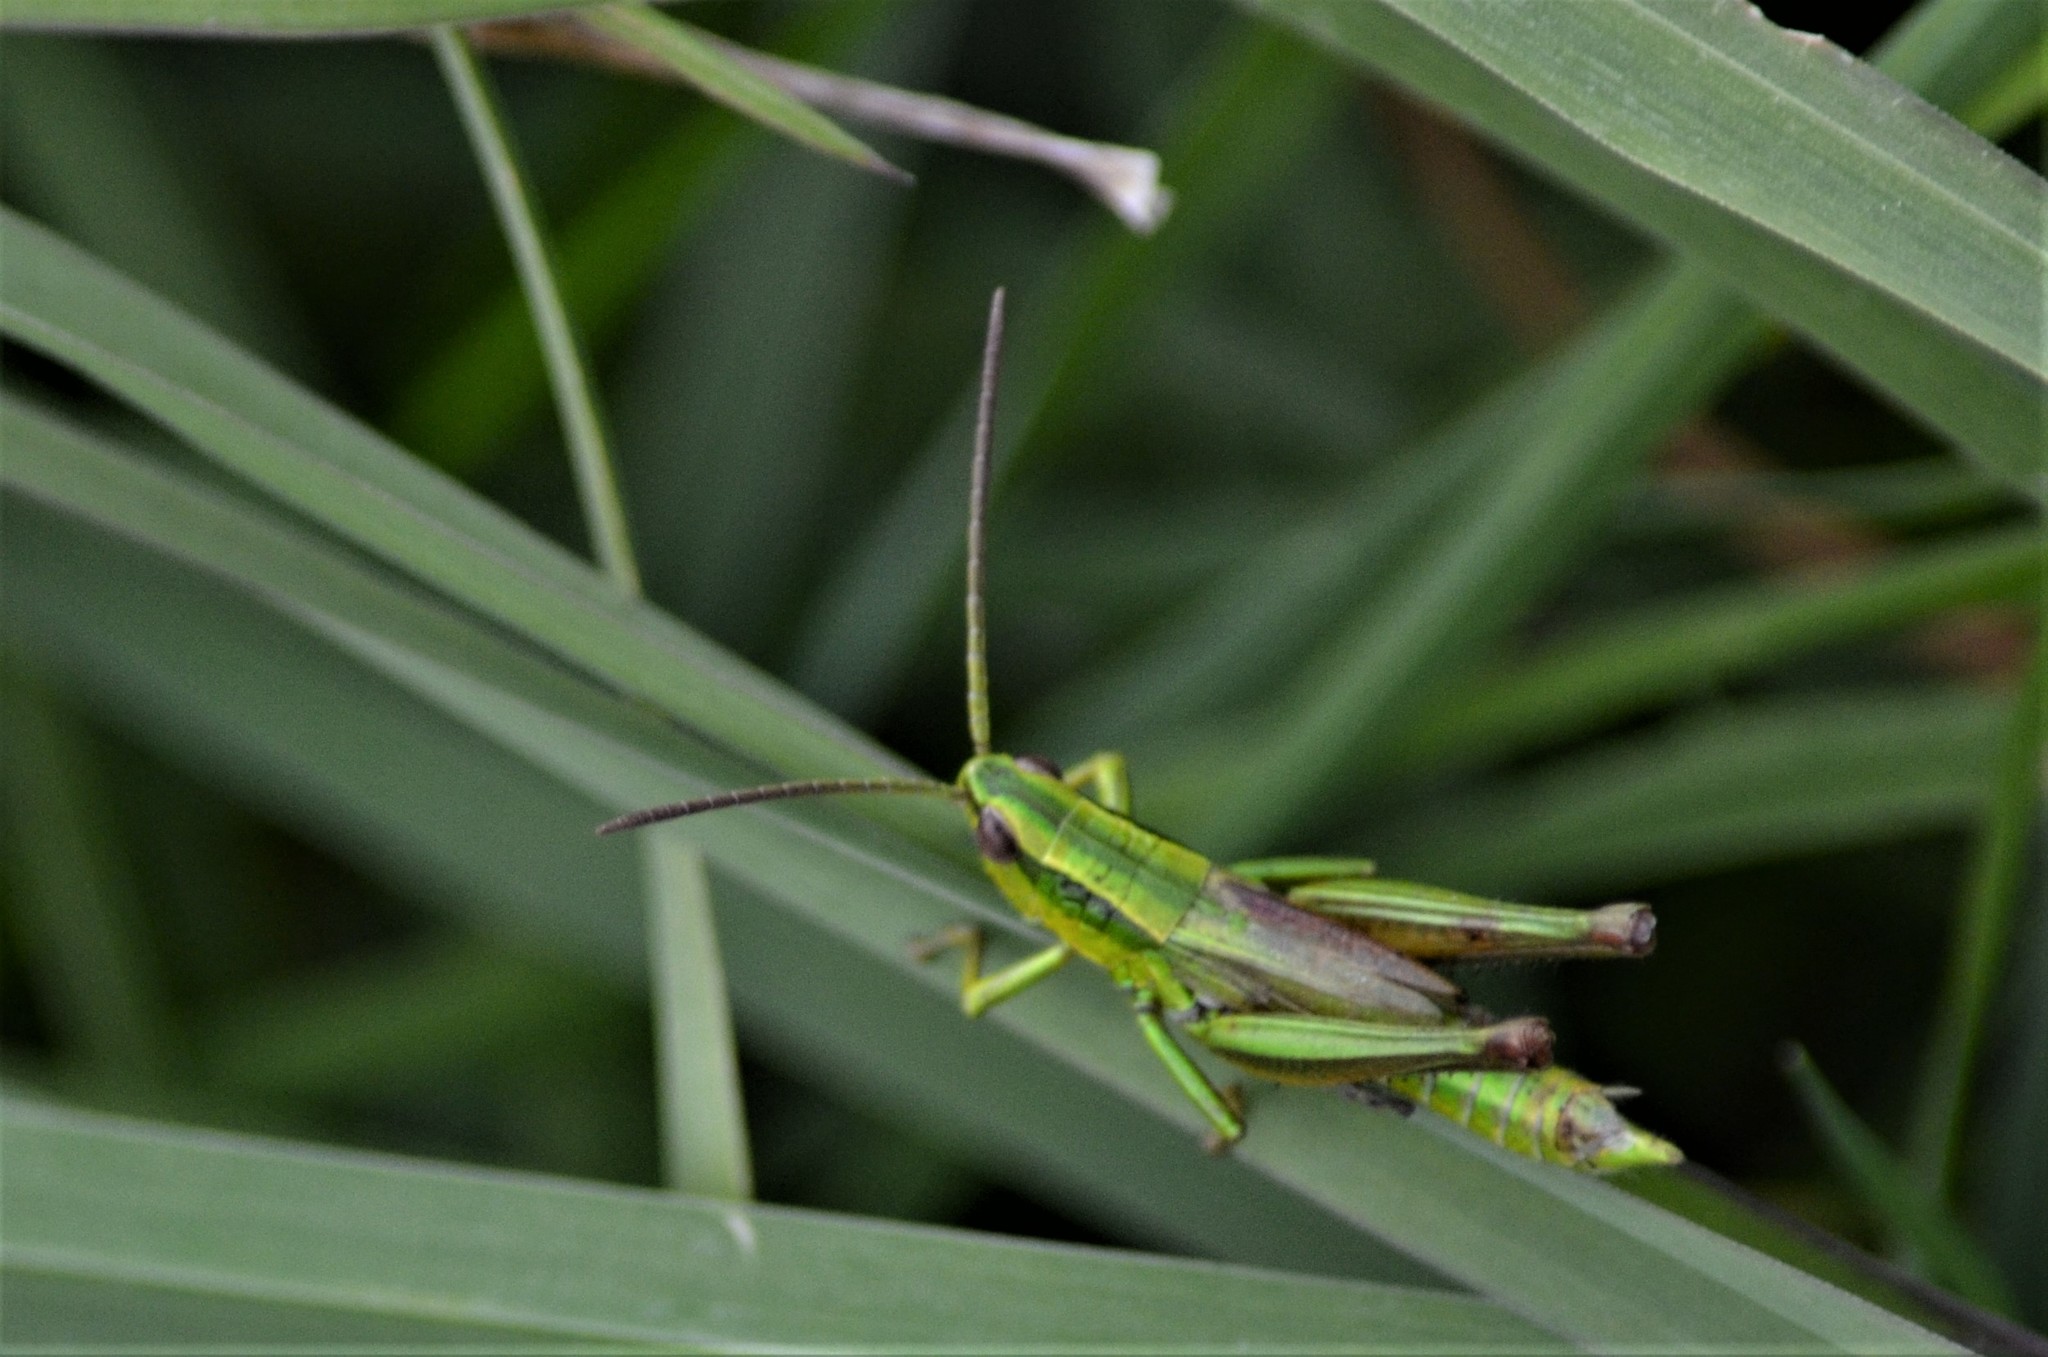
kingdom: Animalia
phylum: Arthropoda
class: Insecta
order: Orthoptera
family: Acrididae
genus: Euthystira
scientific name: Euthystira brachyptera
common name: Small gold grasshopper
